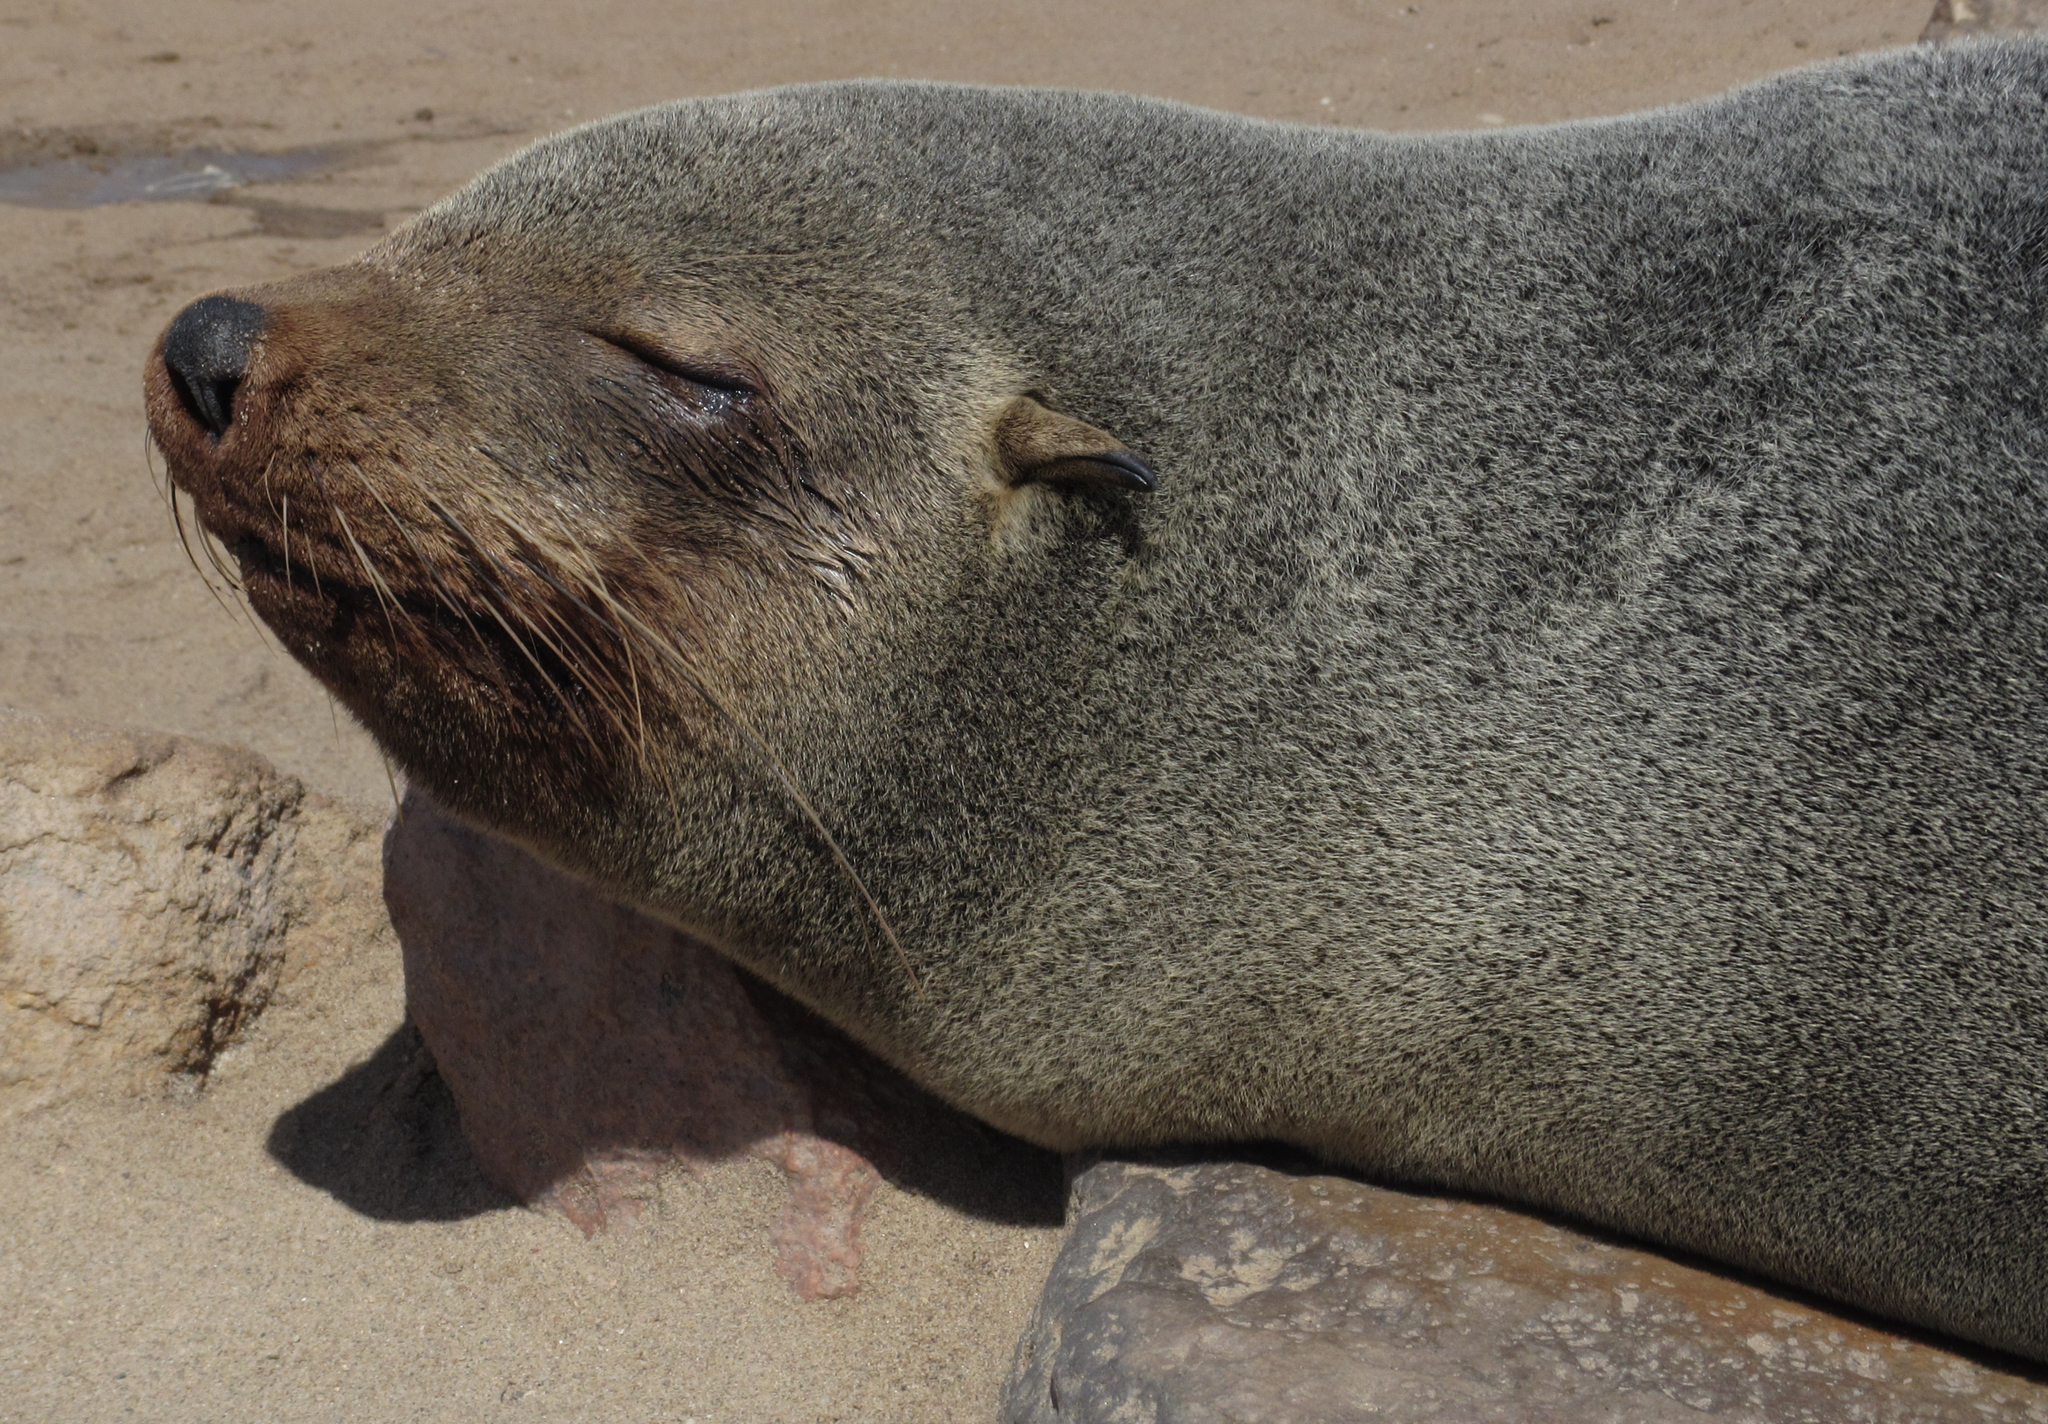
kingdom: Animalia
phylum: Chordata
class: Mammalia
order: Carnivora
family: Otariidae
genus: Arctocephalus
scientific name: Arctocephalus pusillus
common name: Brown fur seal
